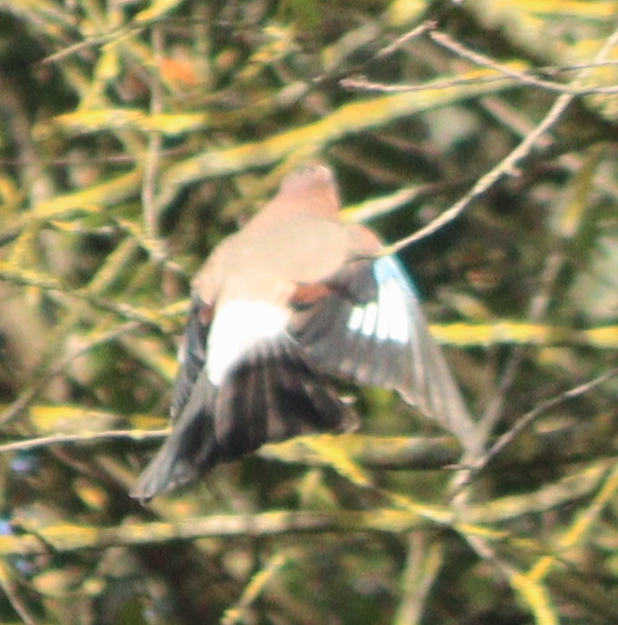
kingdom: Animalia
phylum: Chordata
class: Aves
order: Passeriformes
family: Corvidae
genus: Garrulus
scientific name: Garrulus glandarius
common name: Eurasian jay
